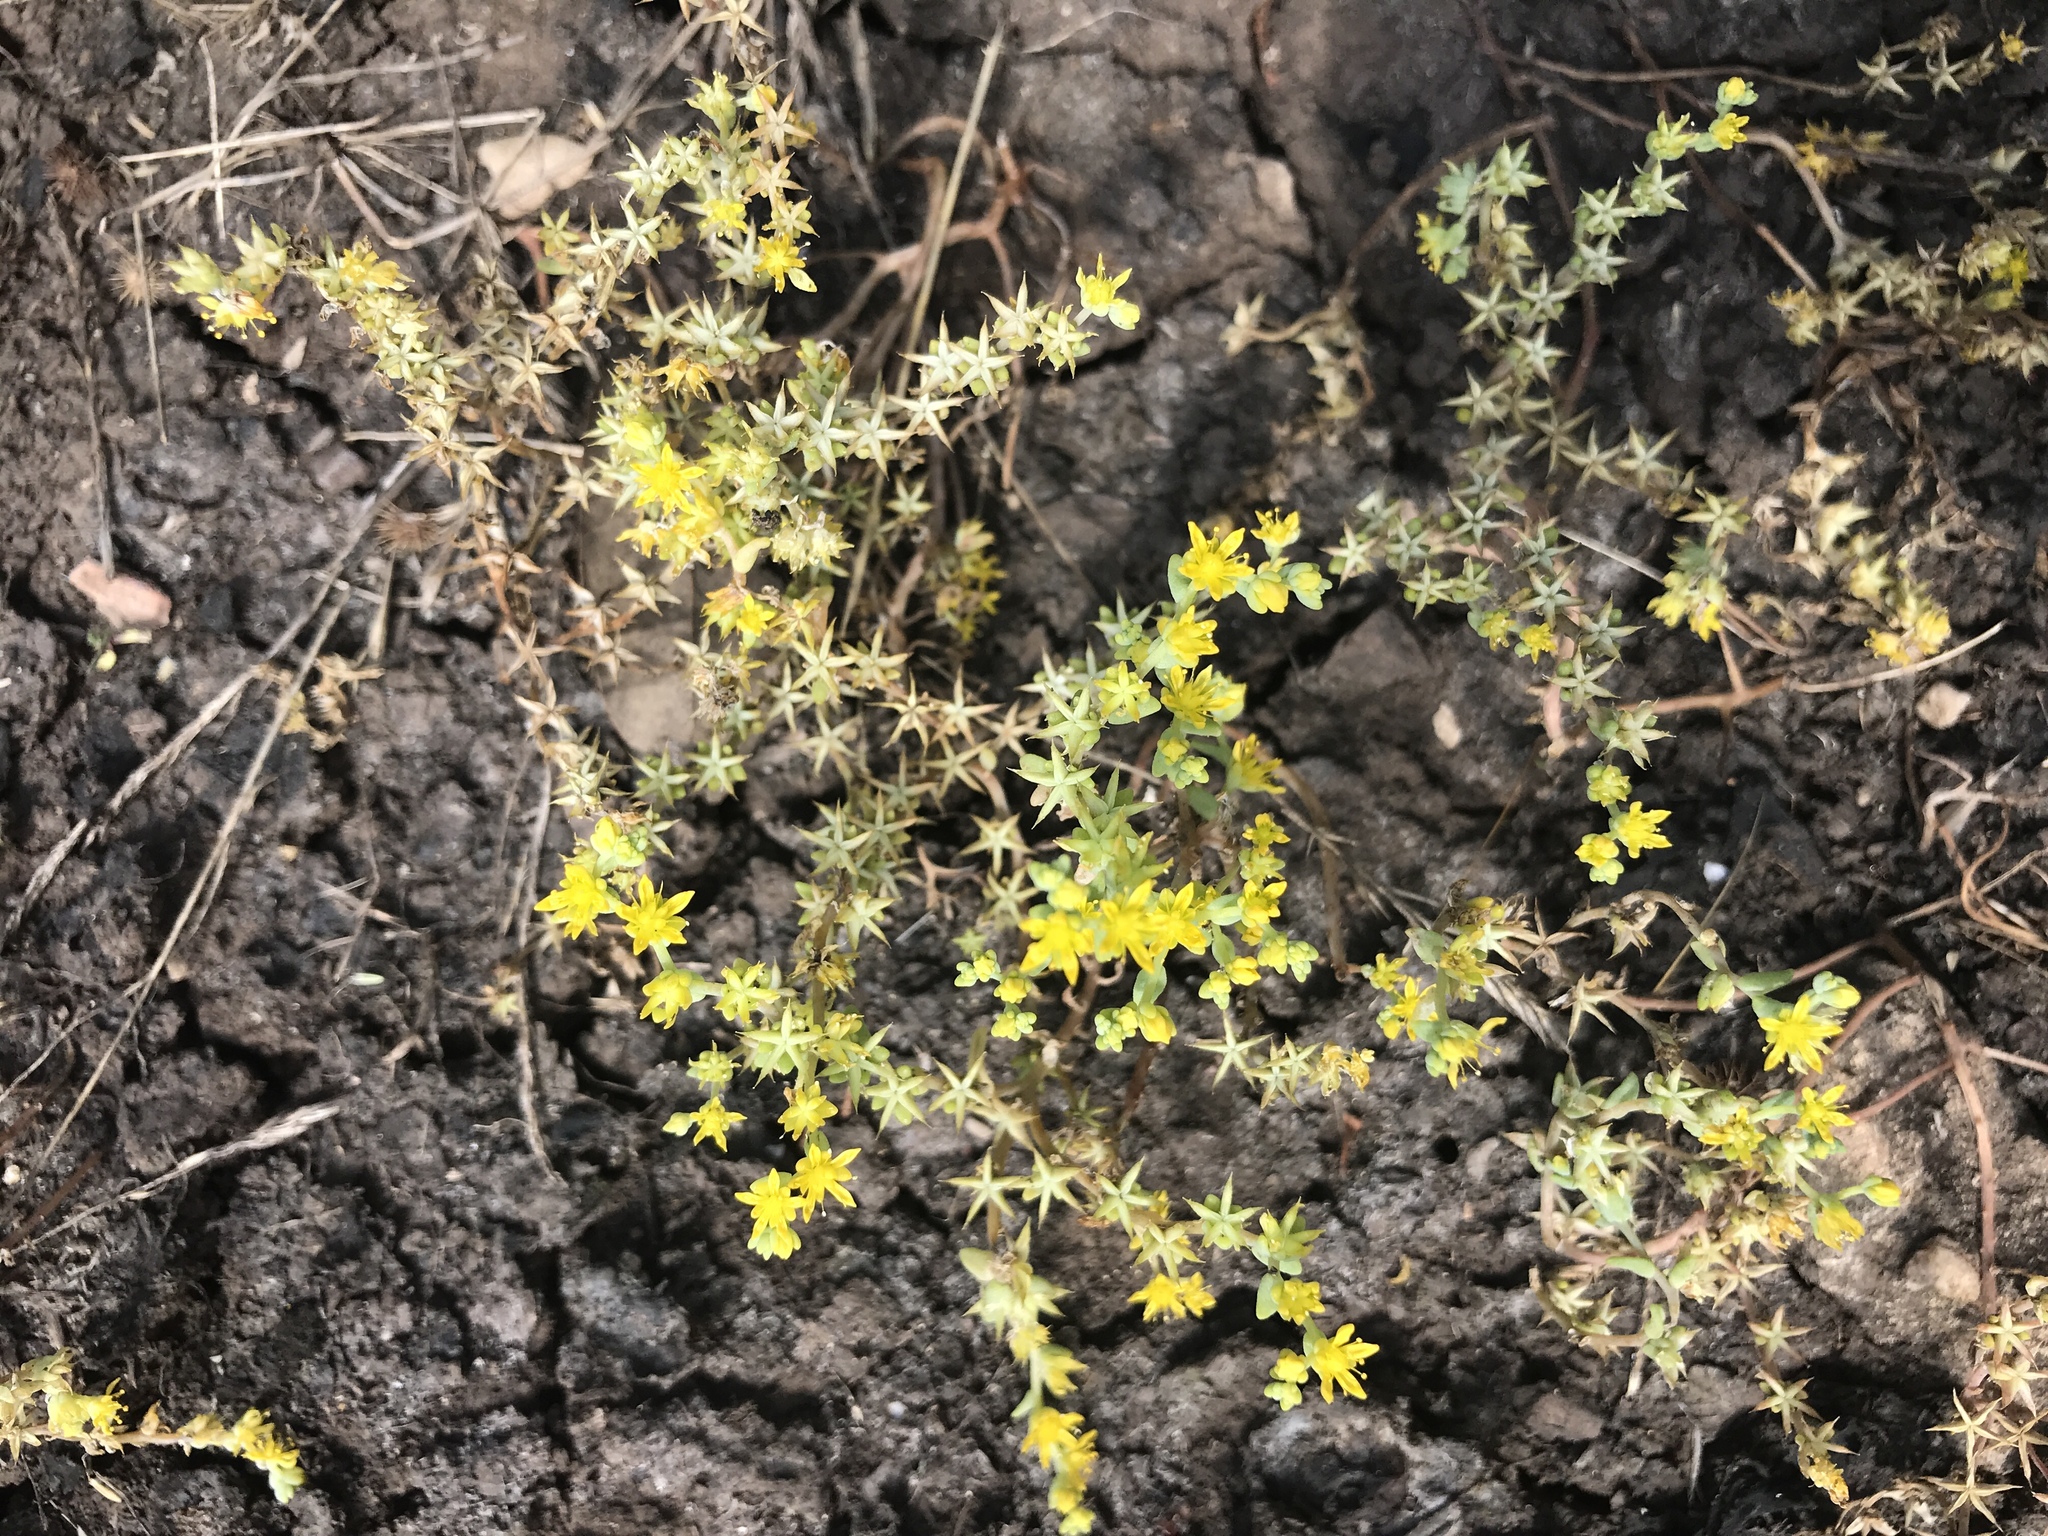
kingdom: Plantae
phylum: Tracheophyta
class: Magnoliopsida
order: Saxifragales
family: Crassulaceae
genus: Sedum
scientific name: Sedum nuttallii
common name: Yellow stonecrop
